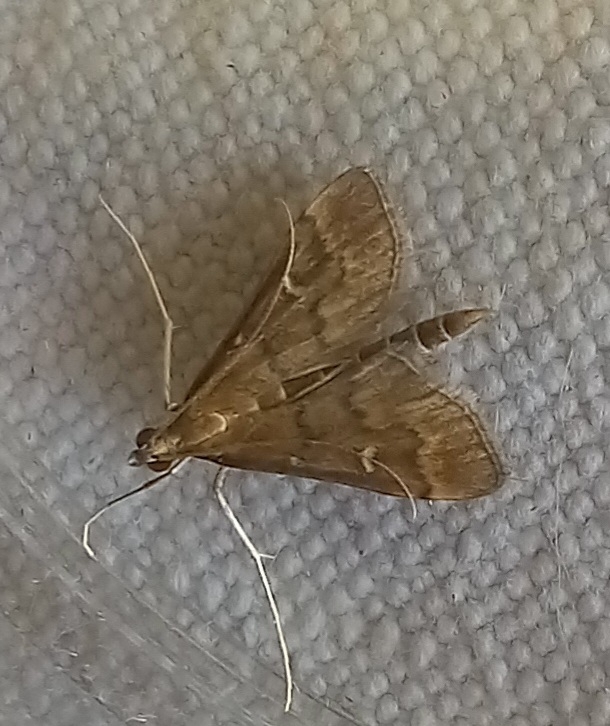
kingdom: Animalia
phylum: Arthropoda
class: Insecta
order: Lepidoptera
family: Crambidae
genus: Stenia
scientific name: Stenia Dolicharthria punctalis
